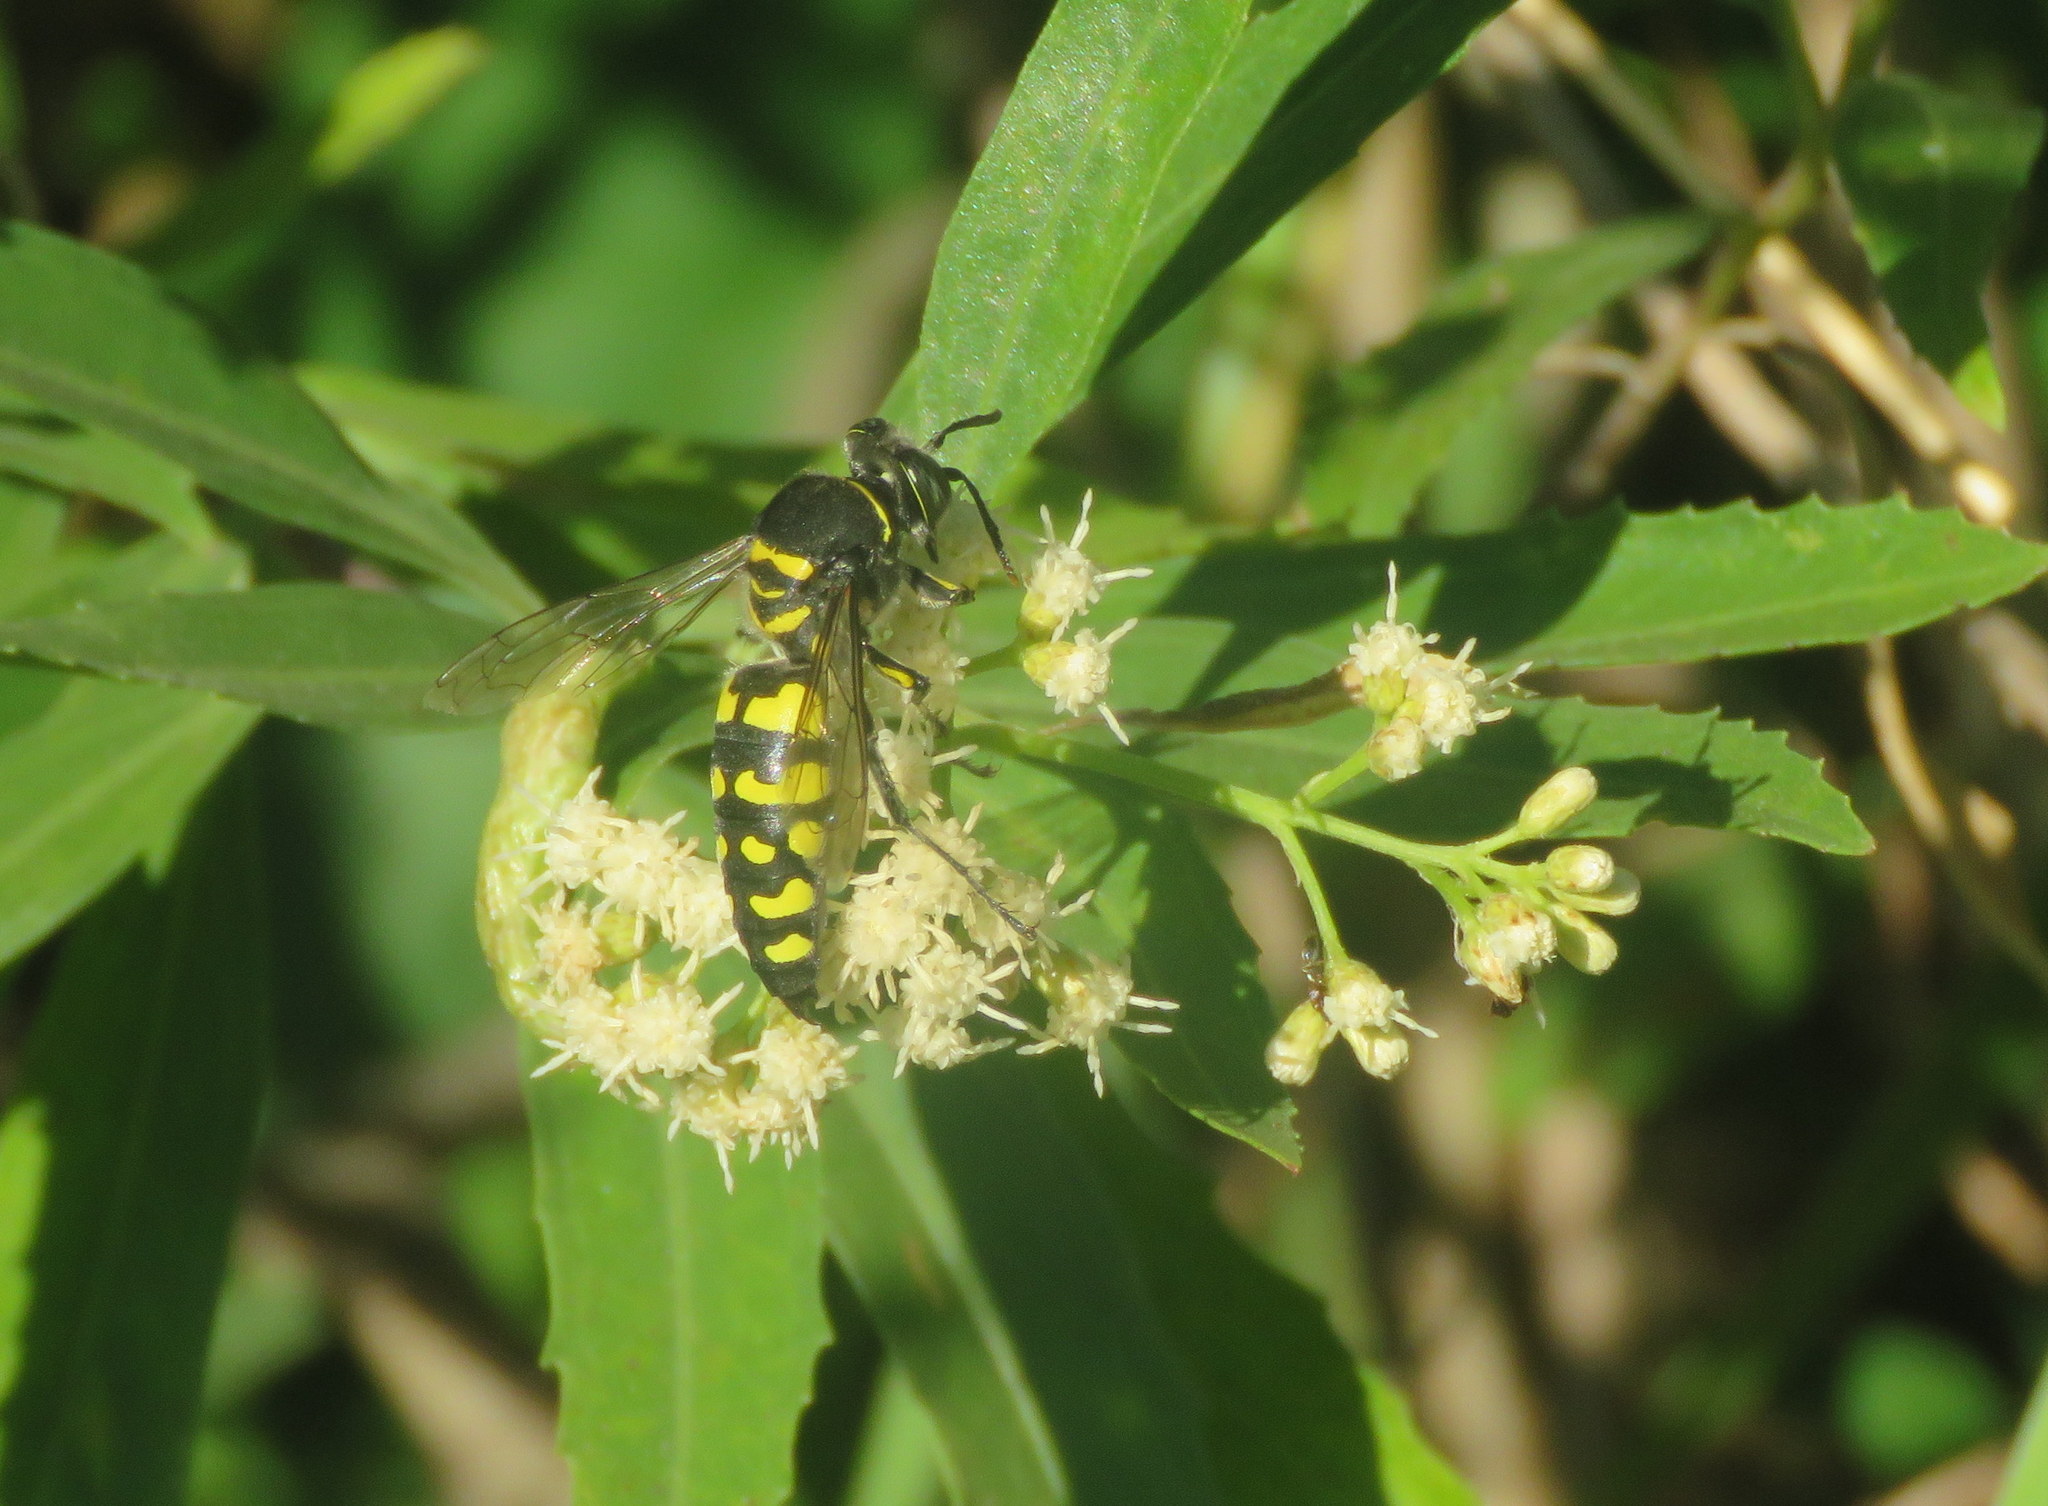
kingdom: Animalia
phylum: Arthropoda
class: Insecta
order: Hymenoptera
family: Crabronidae
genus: Stictia
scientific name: Stictia arcuata
